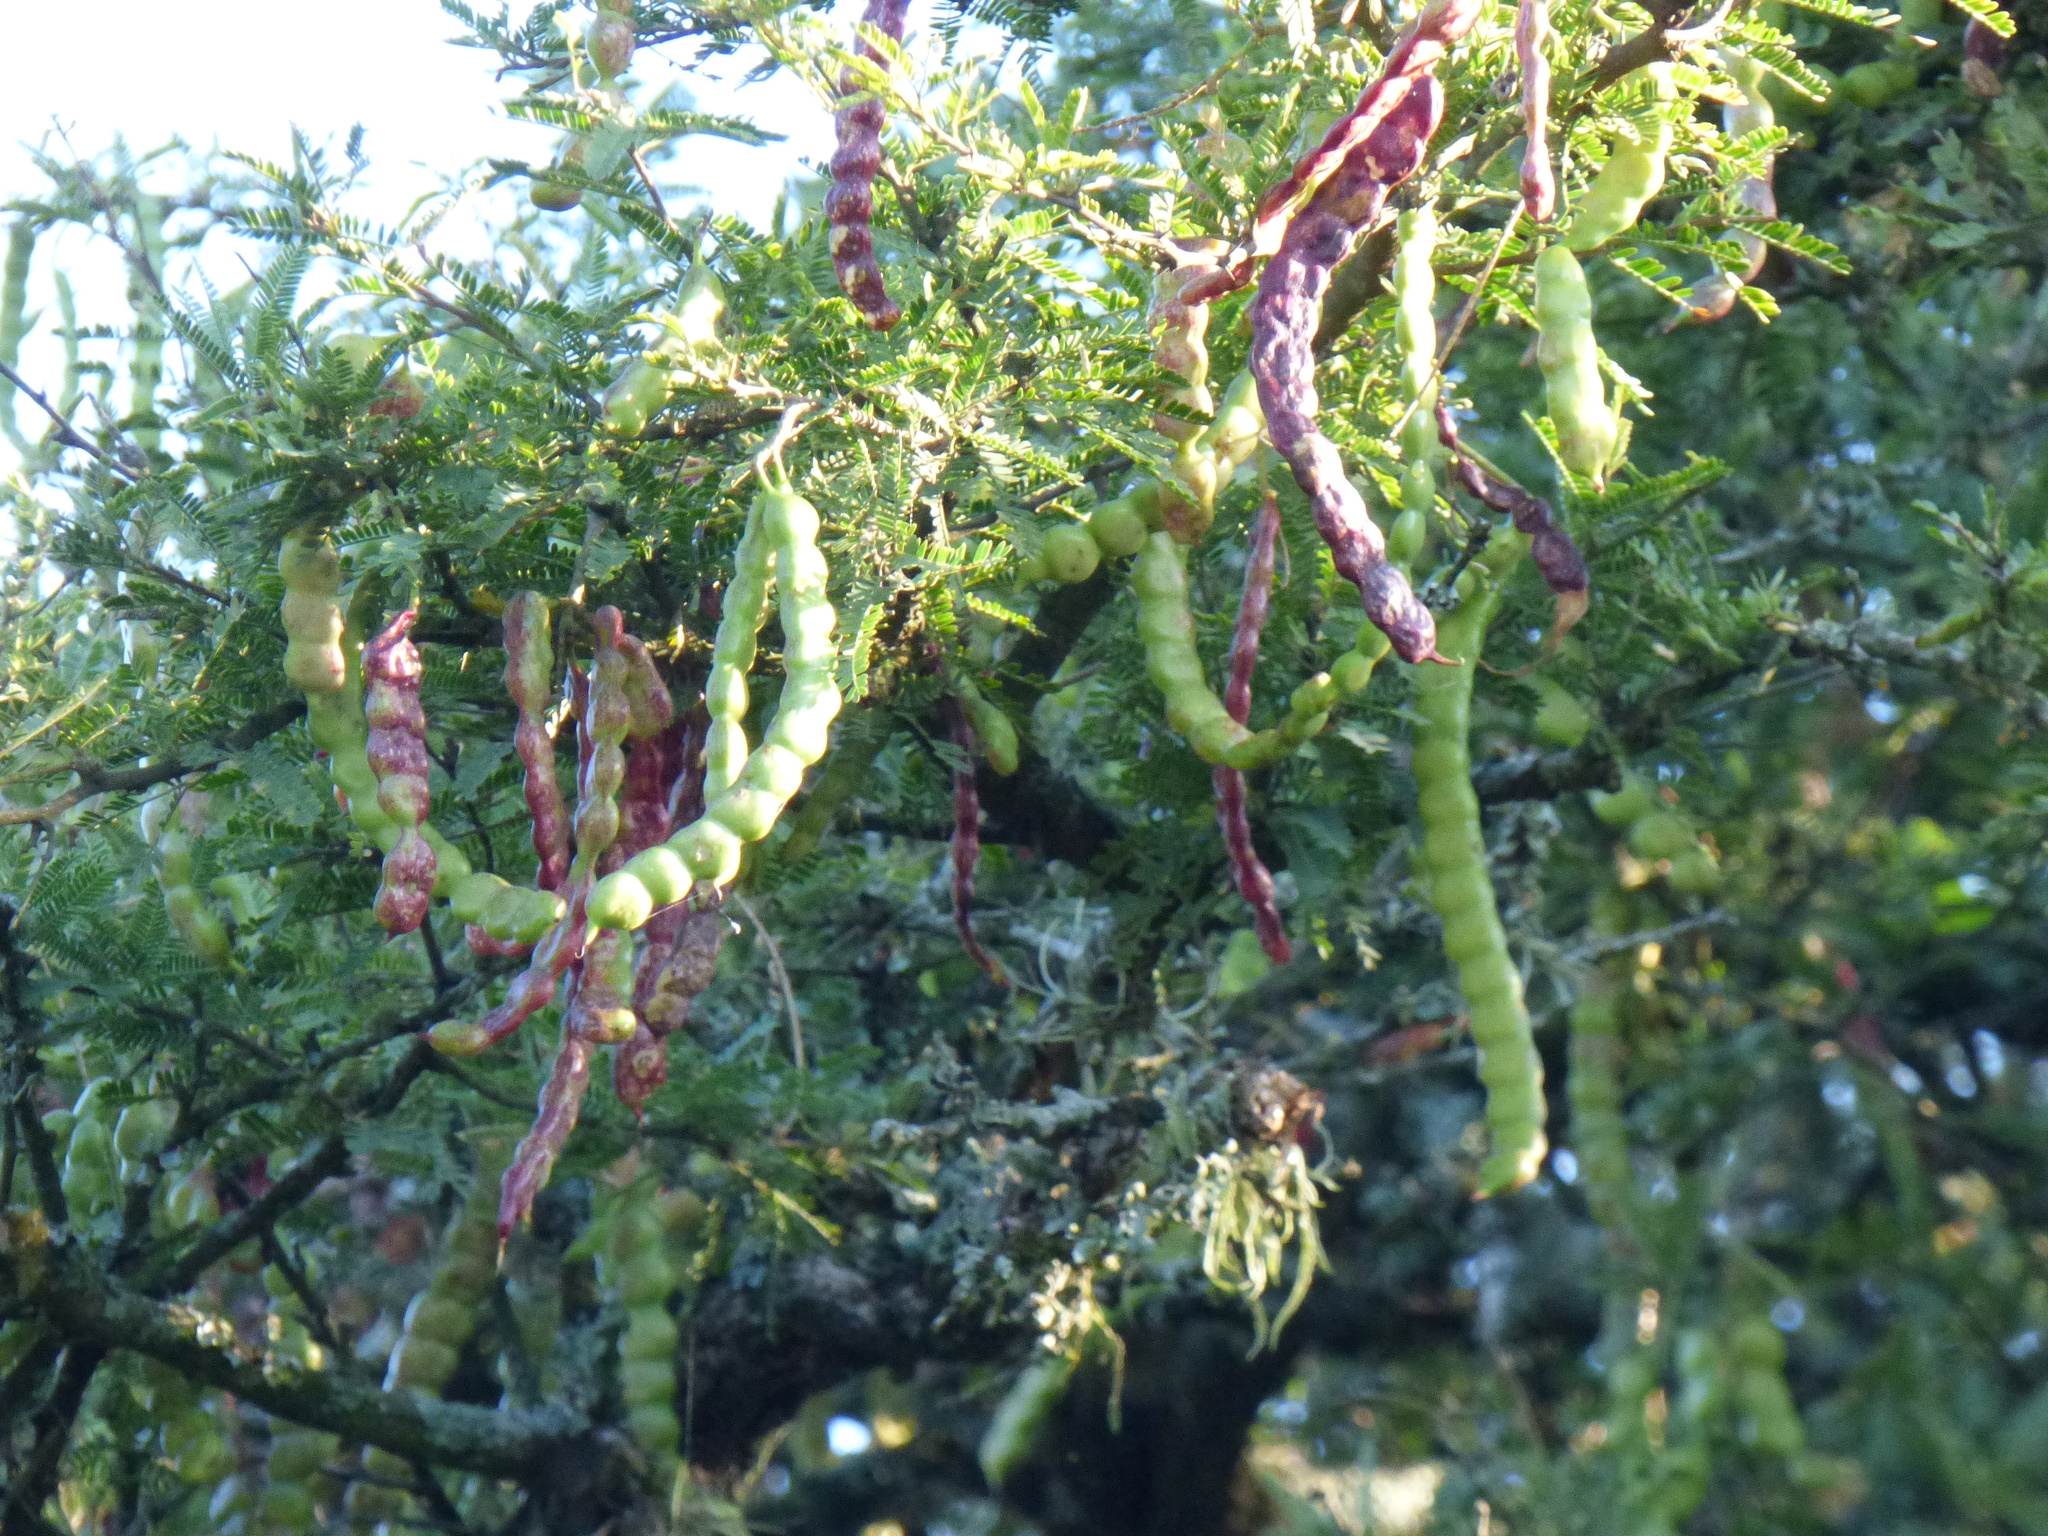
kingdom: Plantae
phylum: Tracheophyta
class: Magnoliopsida
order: Fabales
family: Fabaceae
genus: Prosopis
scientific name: Prosopis affinis
